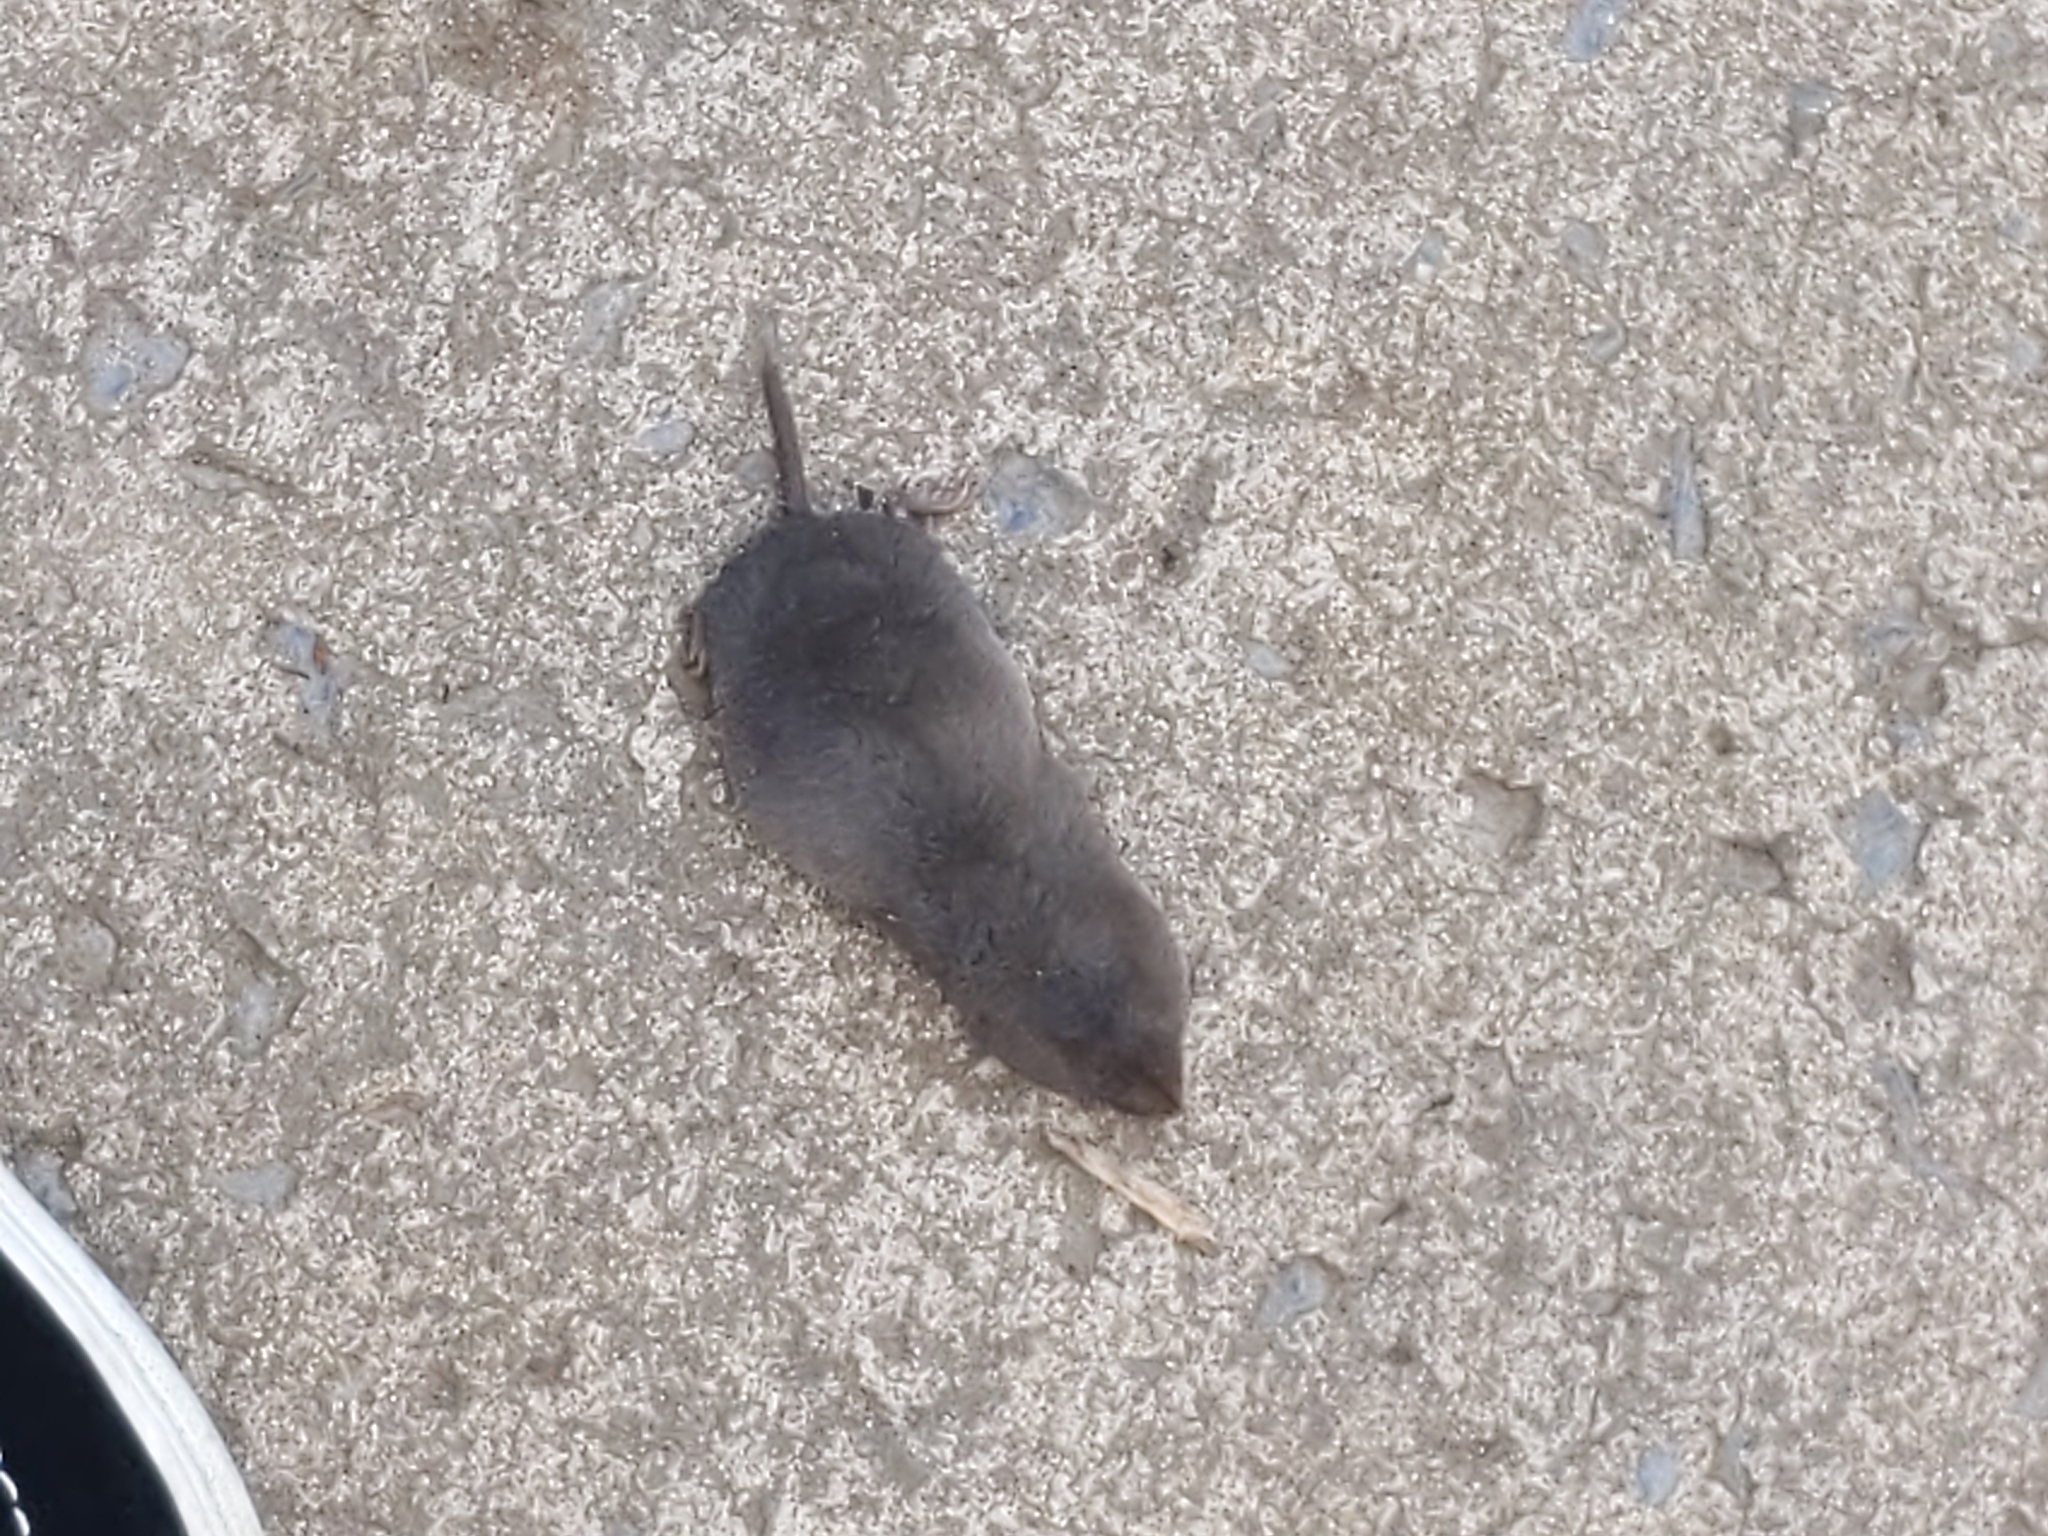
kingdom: Animalia
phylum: Chordata
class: Mammalia
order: Soricomorpha
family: Soricidae
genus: Blarina
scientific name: Blarina brevicauda
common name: Northern short-tailed shrew
